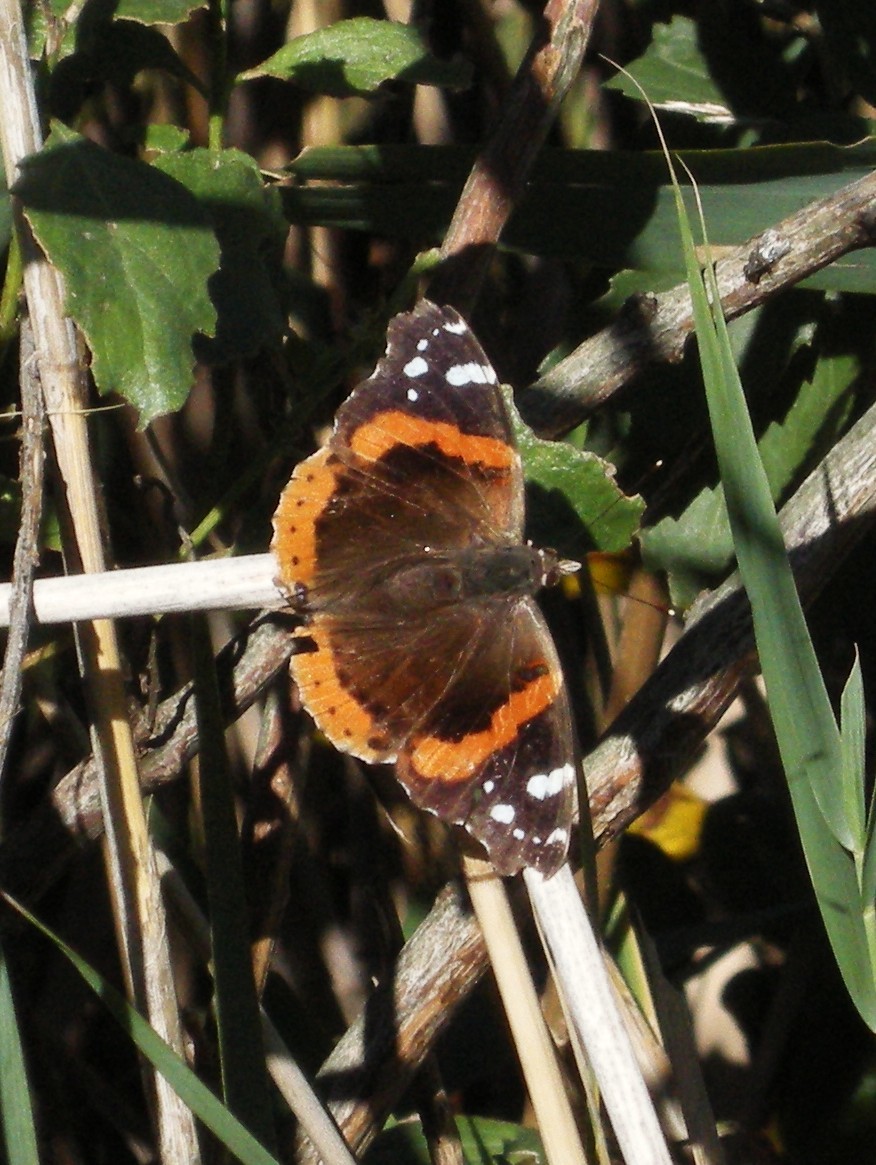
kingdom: Animalia
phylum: Arthropoda
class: Insecta
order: Lepidoptera
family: Nymphalidae
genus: Vanessa
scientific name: Vanessa atalanta
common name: Red admiral
